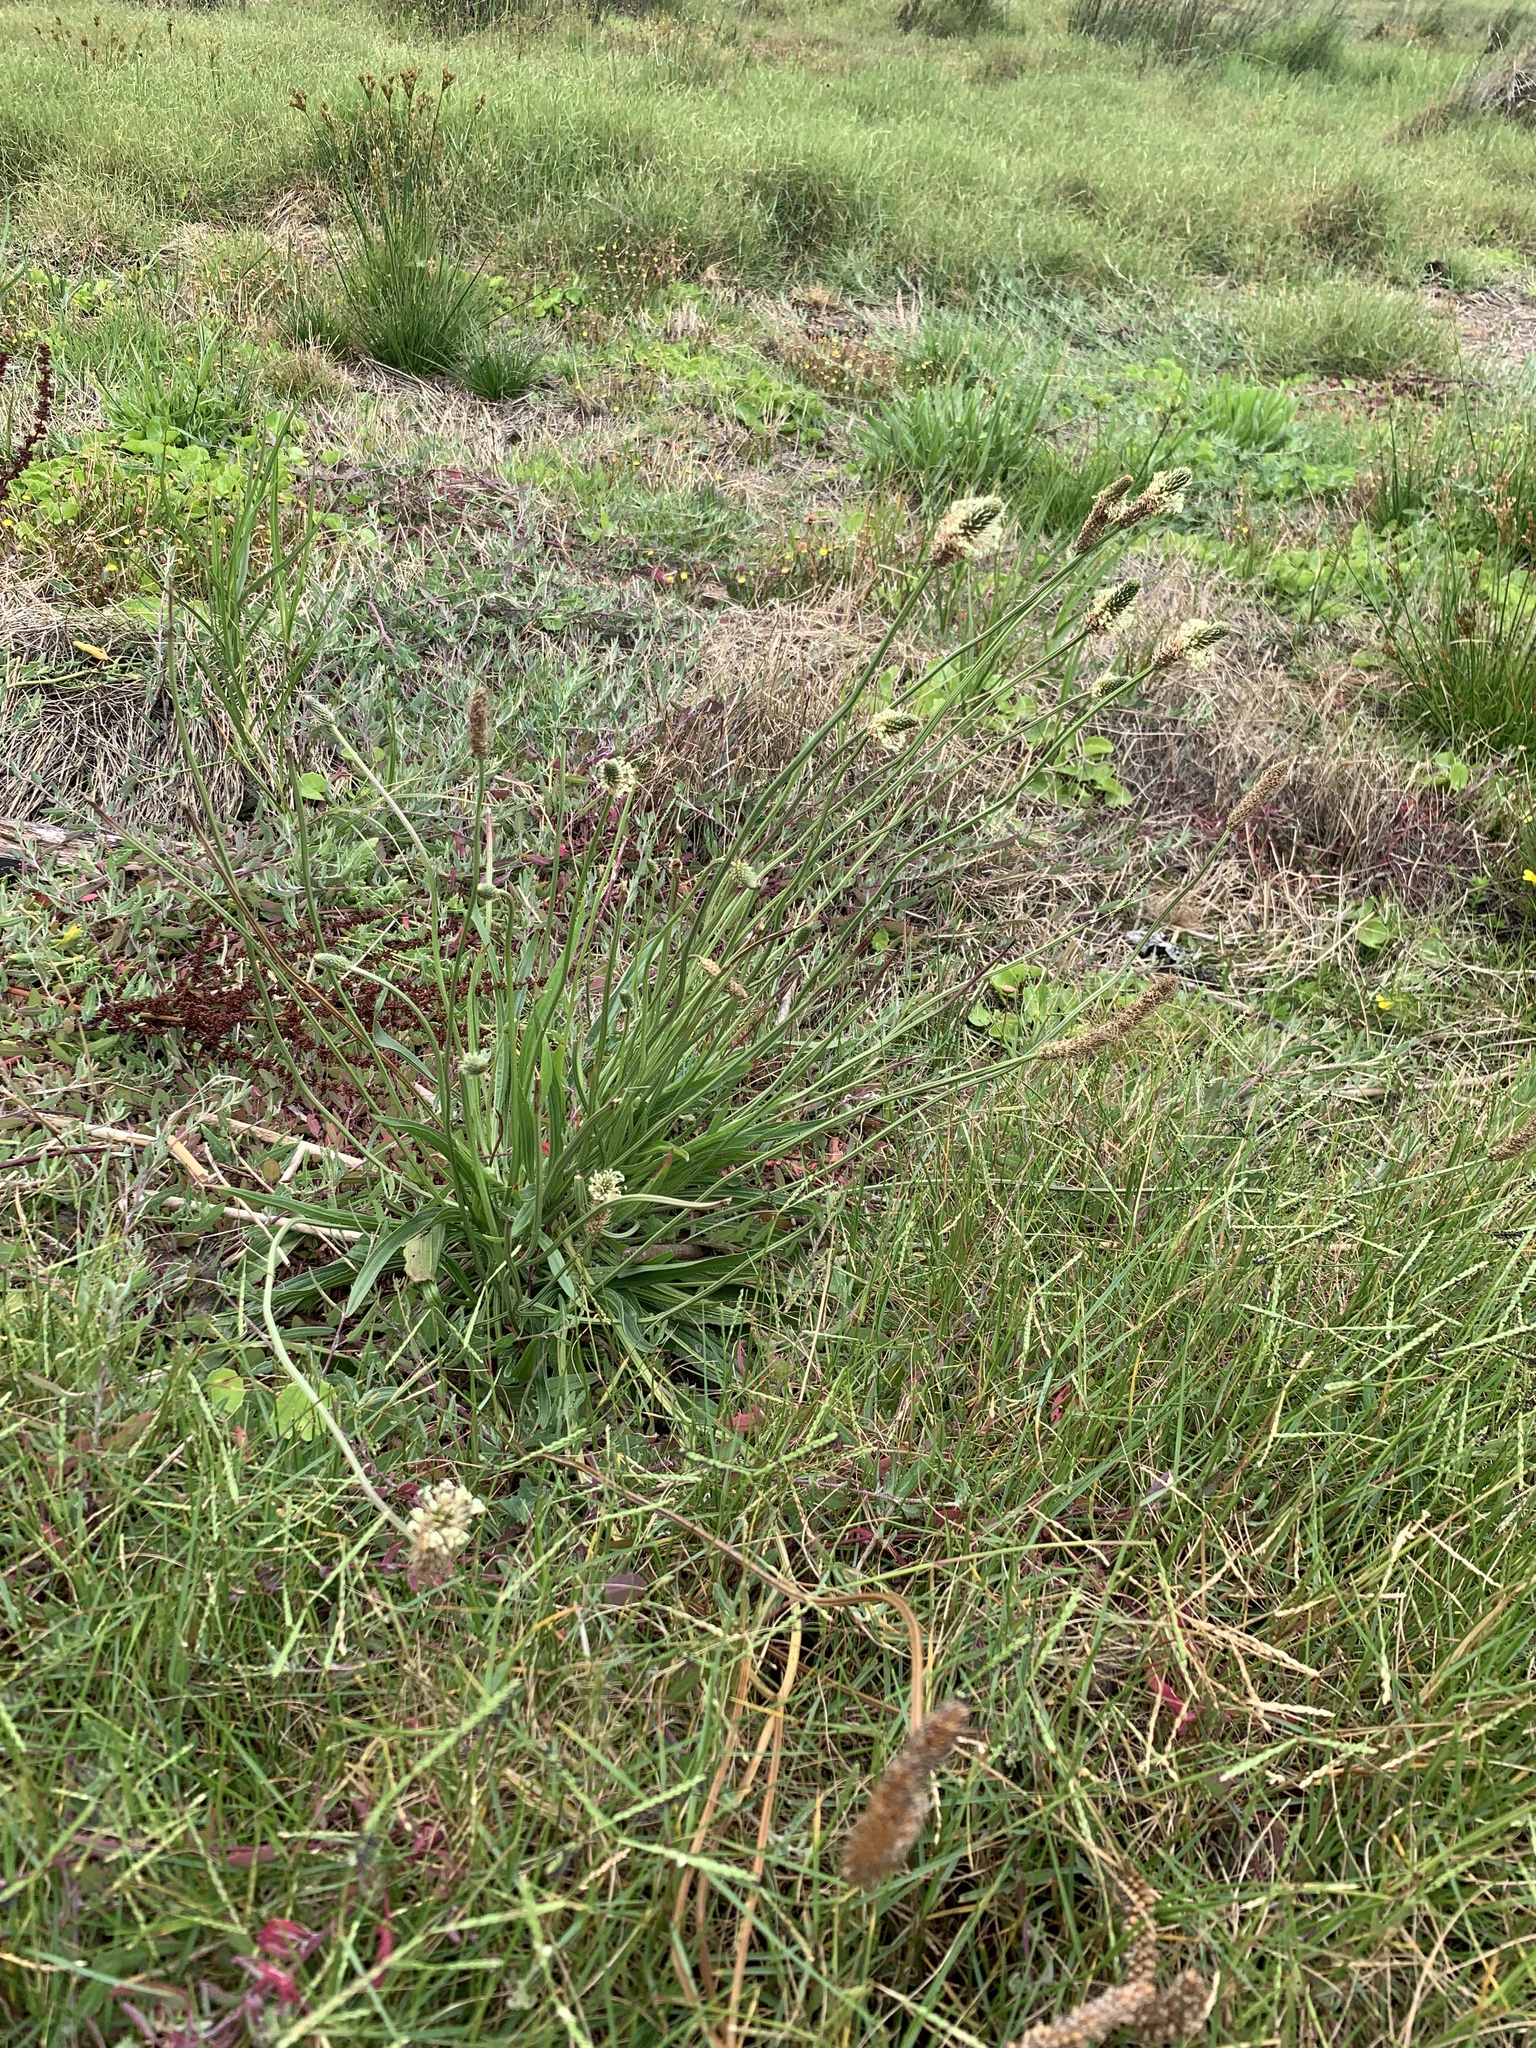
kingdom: Plantae
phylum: Tracheophyta
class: Magnoliopsida
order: Lamiales
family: Plantaginaceae
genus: Plantago
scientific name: Plantago lanceolata
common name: Ribwort plantain
